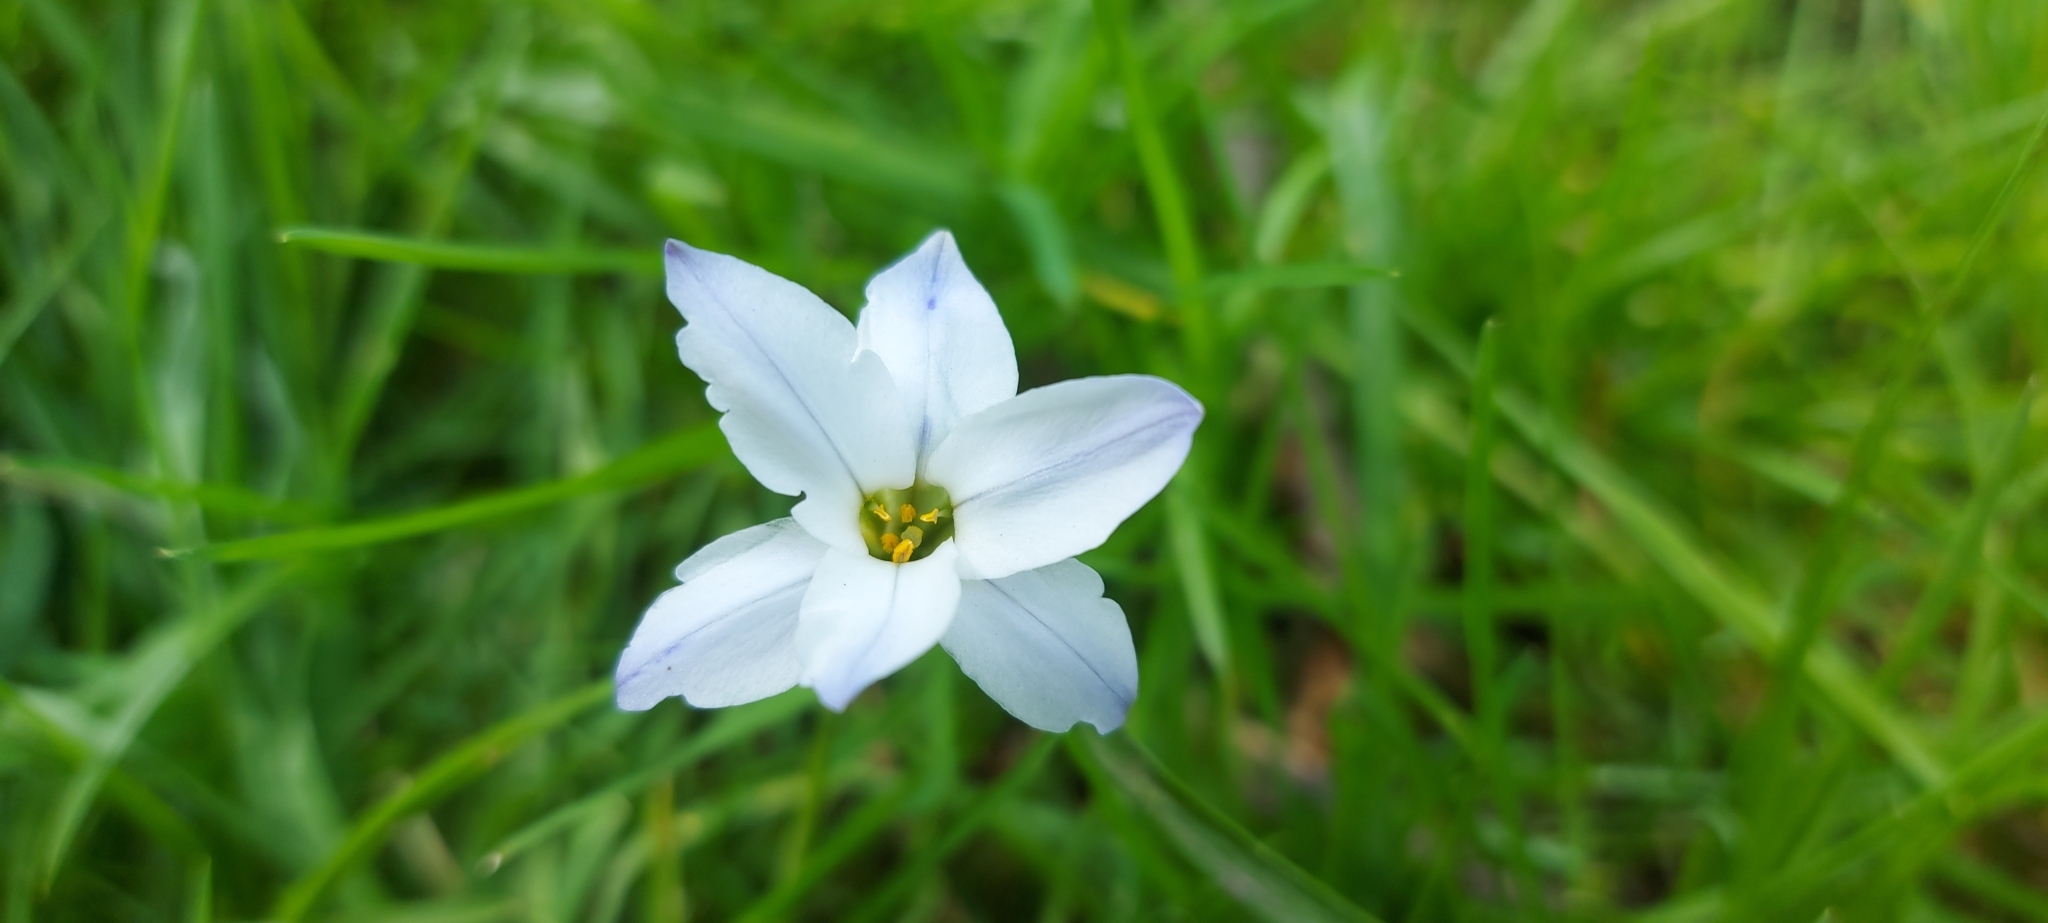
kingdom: Plantae
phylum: Tracheophyta
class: Liliopsida
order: Asparagales
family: Amaryllidaceae
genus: Ipheion
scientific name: Ipheion uniflorum
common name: Spring starflower
